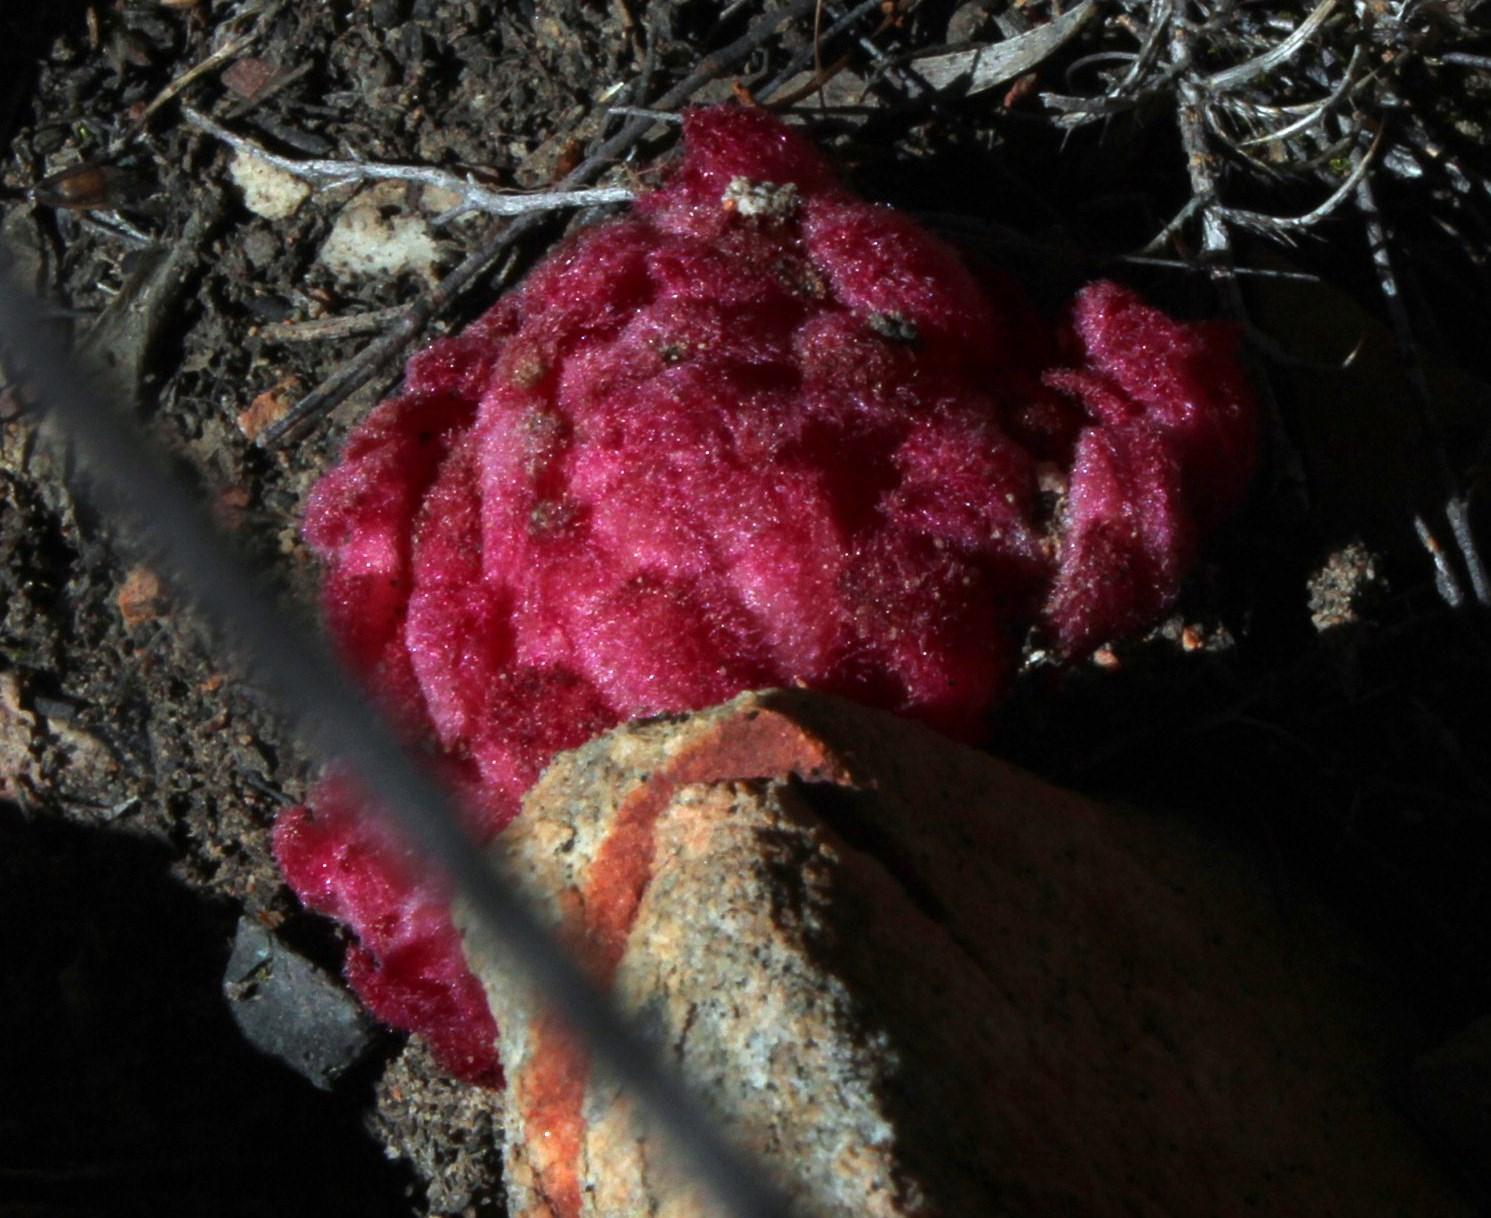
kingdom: Plantae
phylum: Tracheophyta
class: Magnoliopsida
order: Lamiales
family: Orobanchaceae
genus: Hyobanche
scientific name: Hyobanche sanguinea
